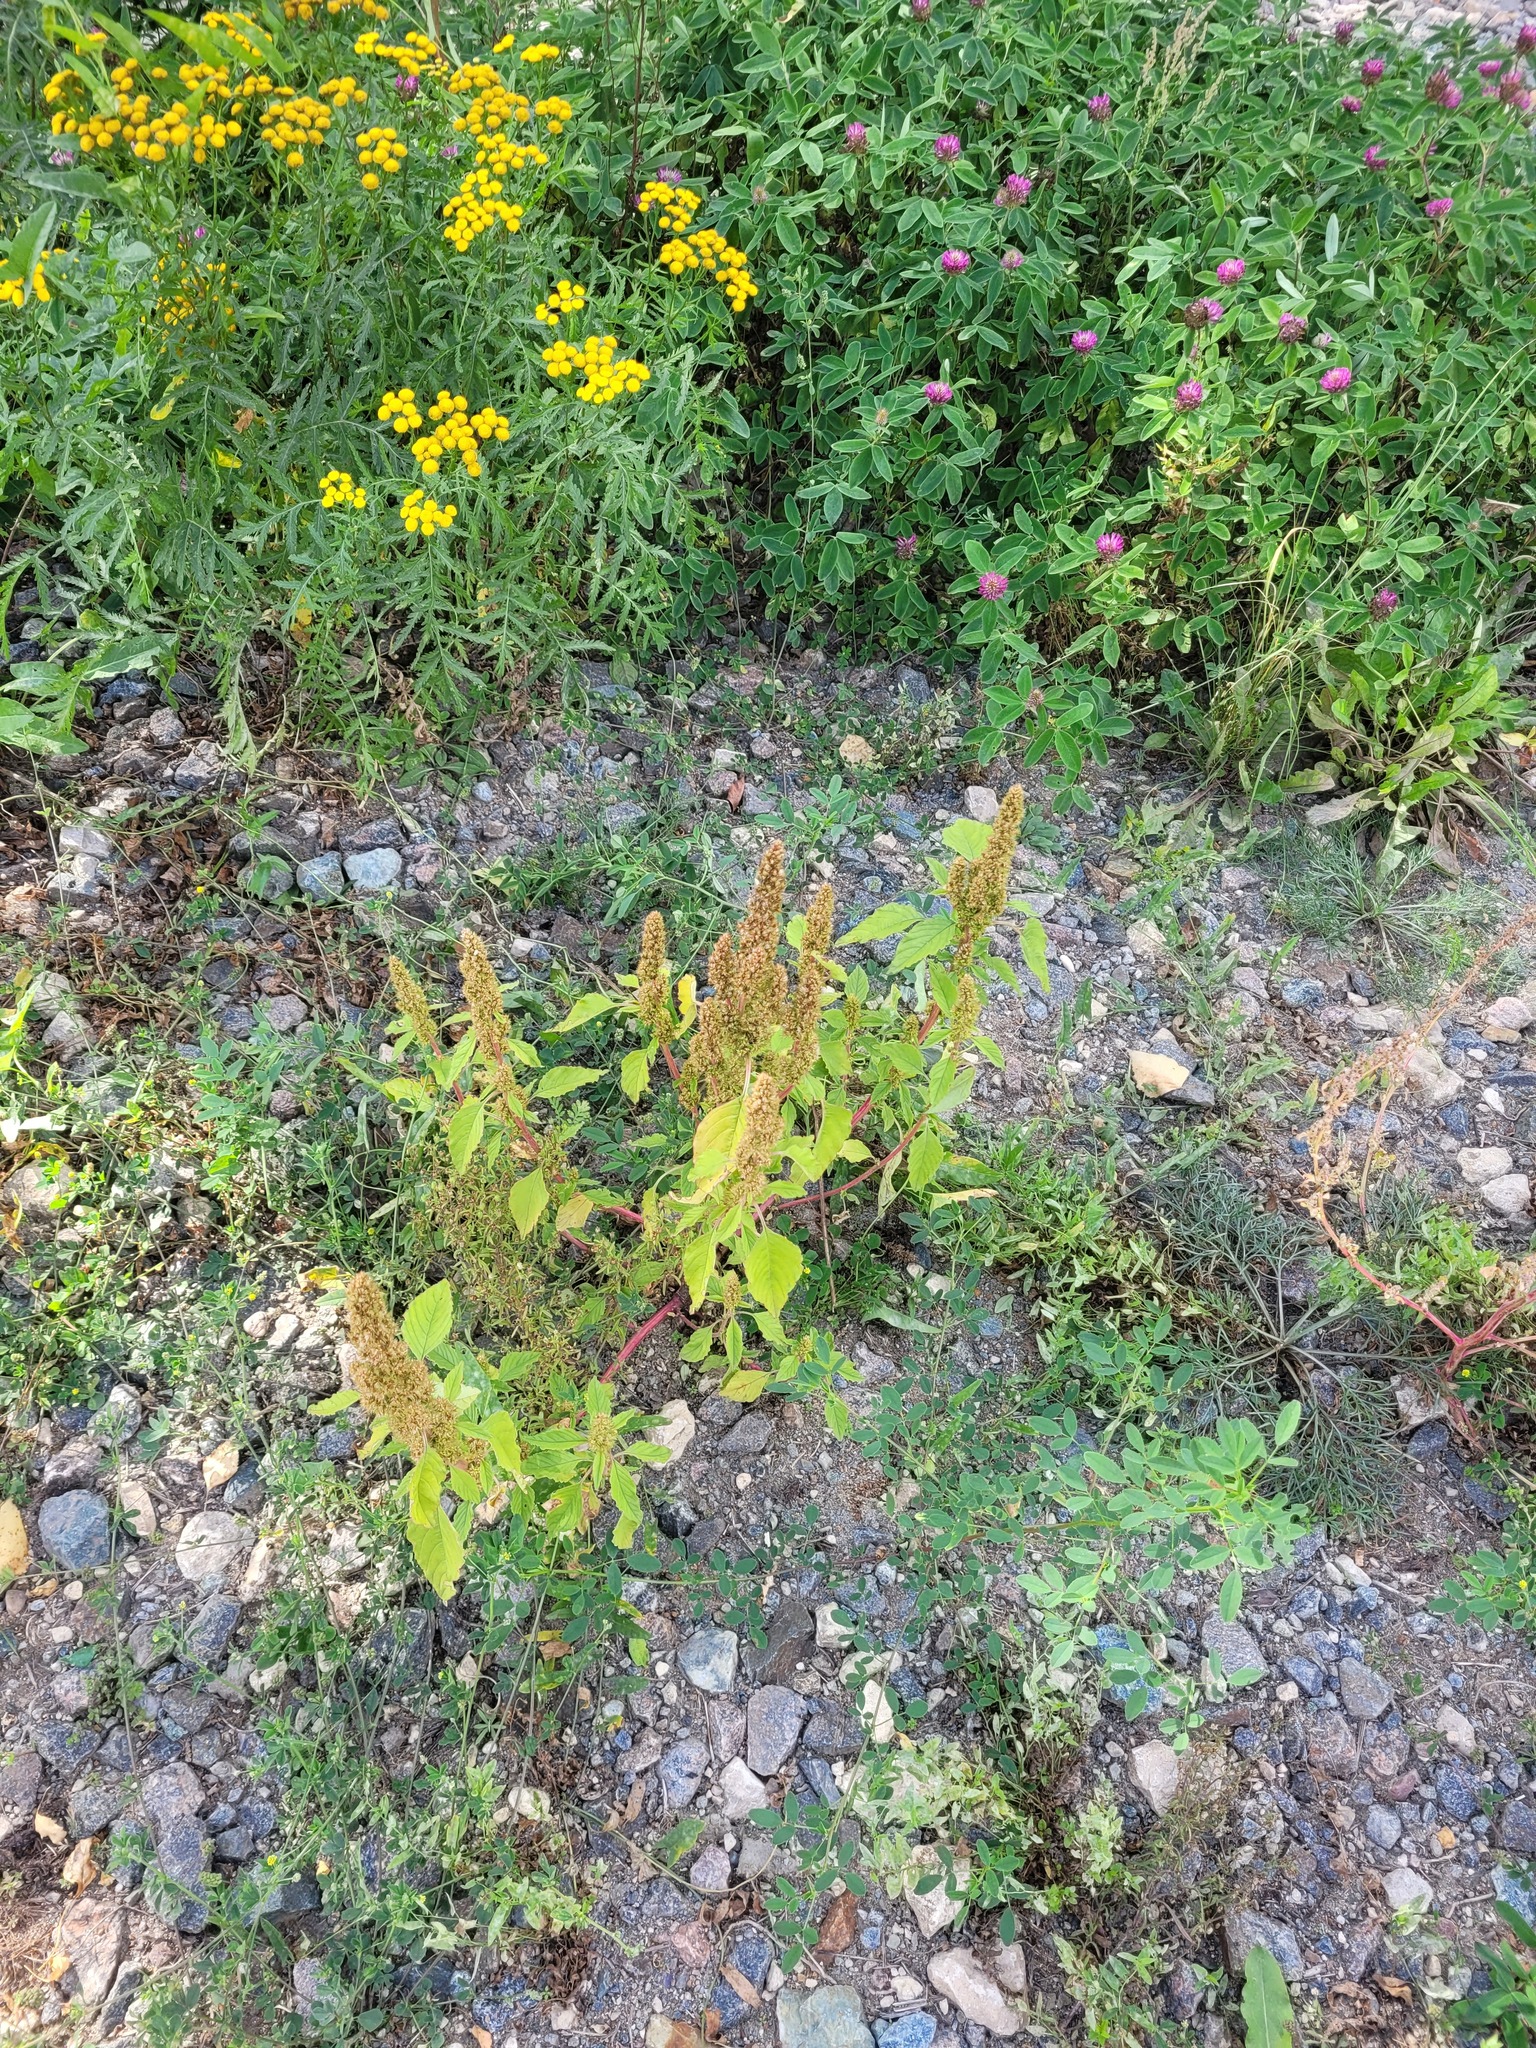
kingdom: Plantae
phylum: Tracheophyta
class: Magnoliopsida
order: Caryophyllales
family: Amaranthaceae
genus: Amaranthus
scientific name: Amaranthus retroflexus
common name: Redroot amaranth
